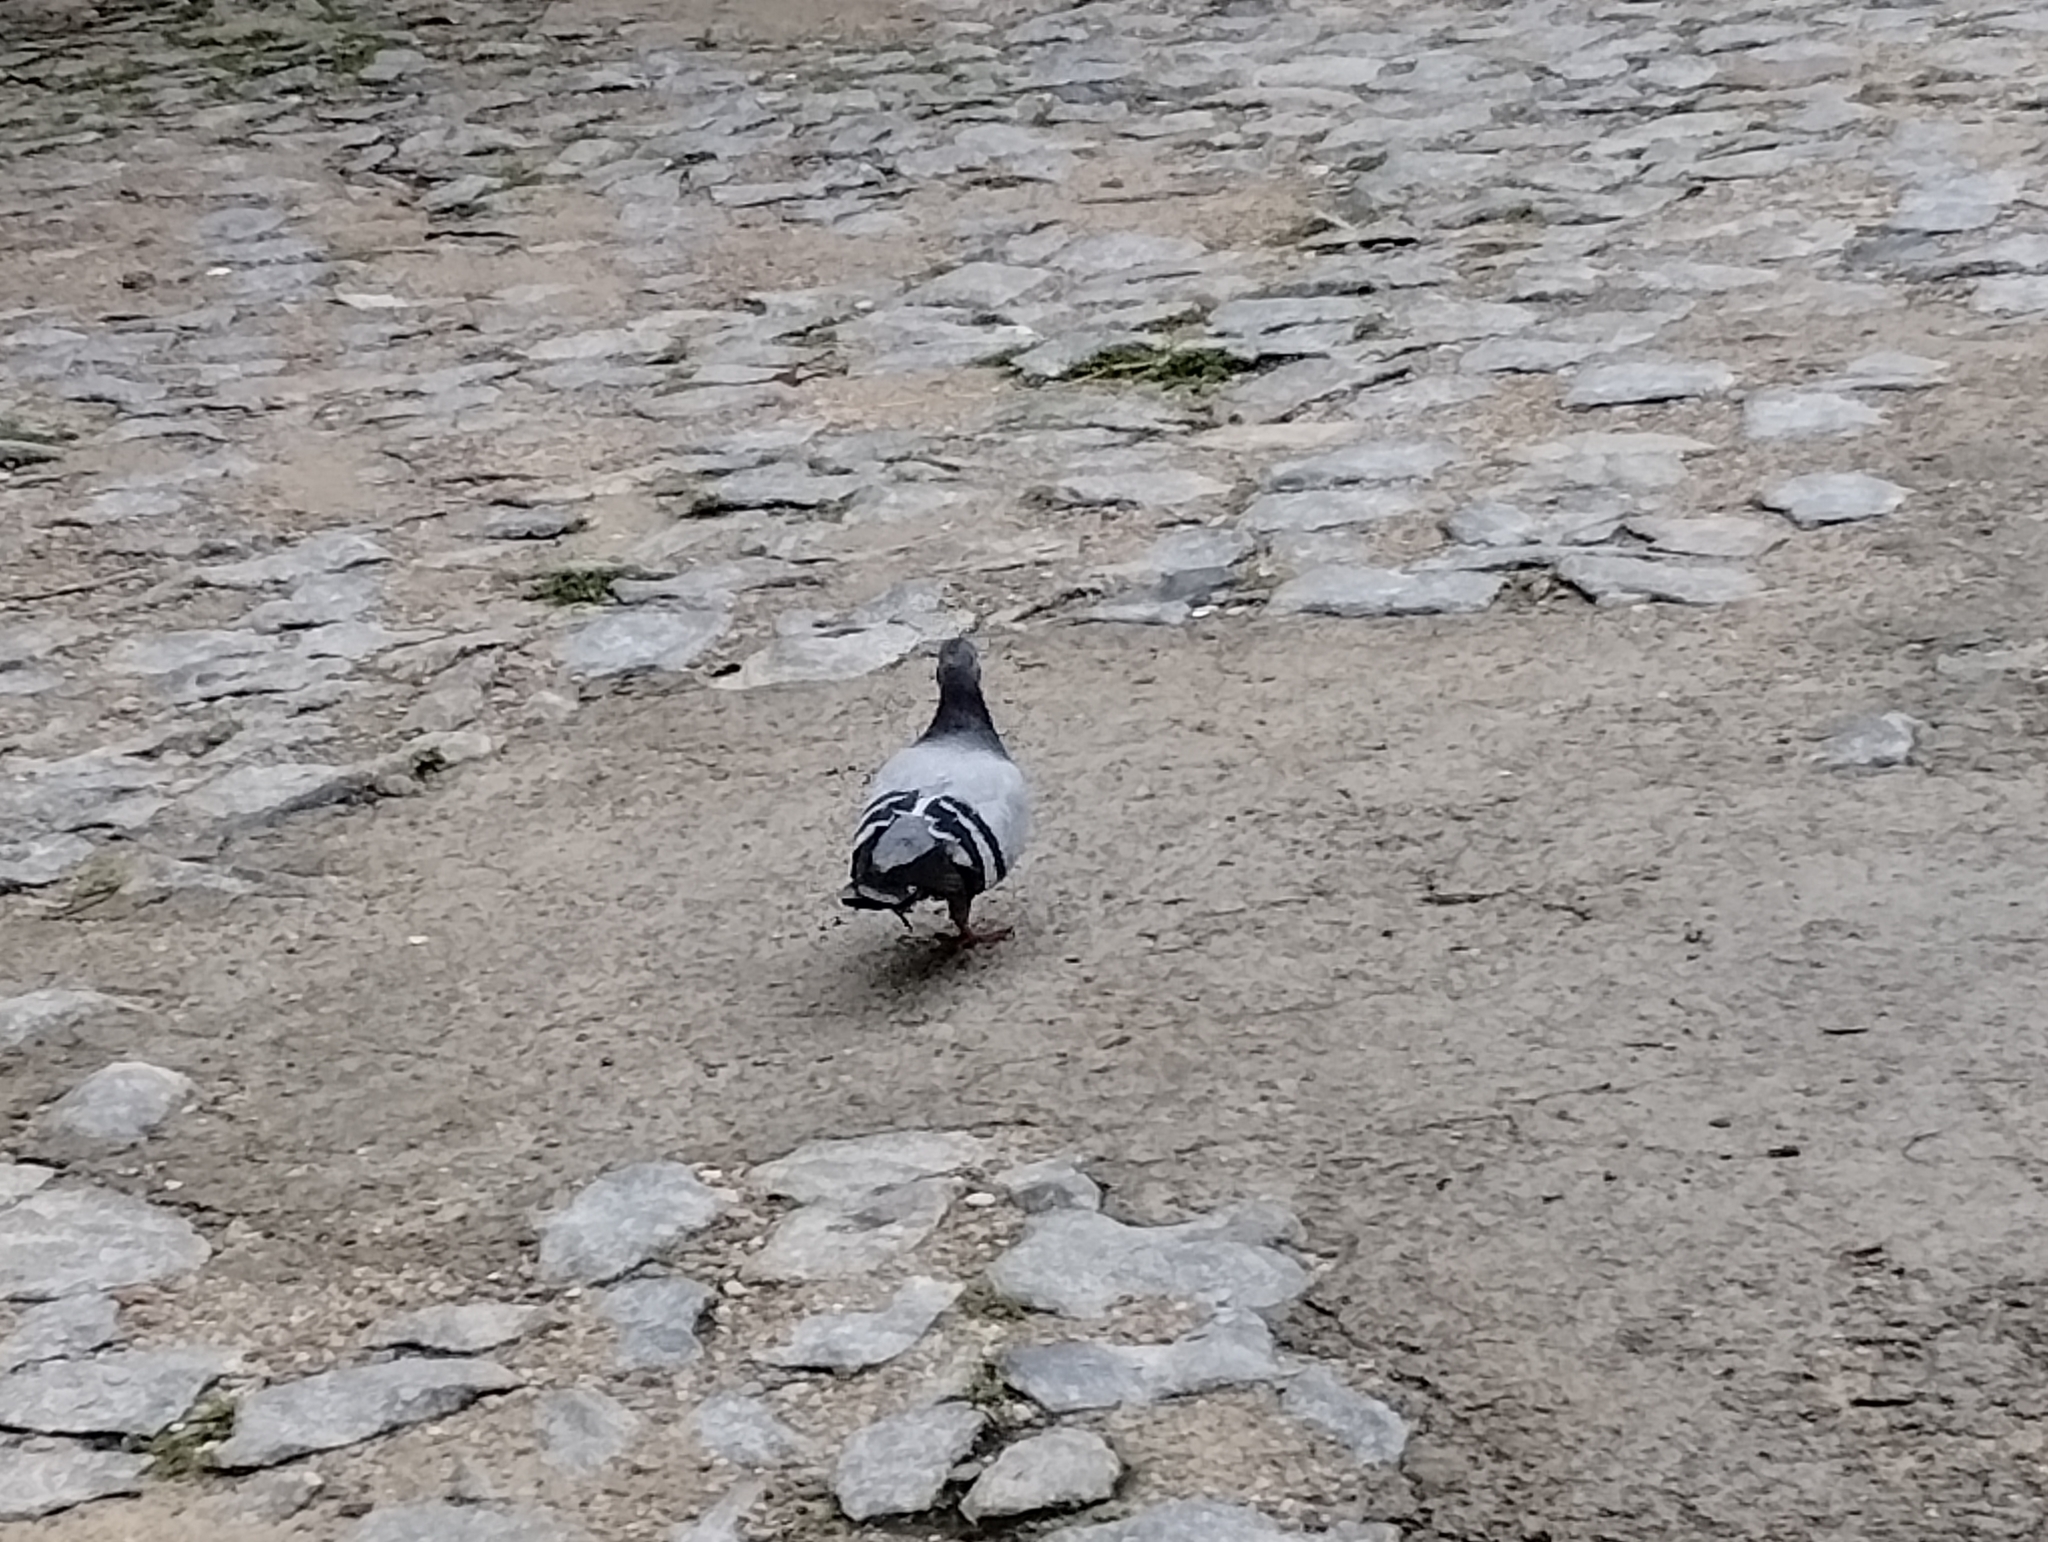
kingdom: Animalia
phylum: Chordata
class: Aves
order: Columbiformes
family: Columbidae
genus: Columba
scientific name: Columba livia
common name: Rock pigeon
